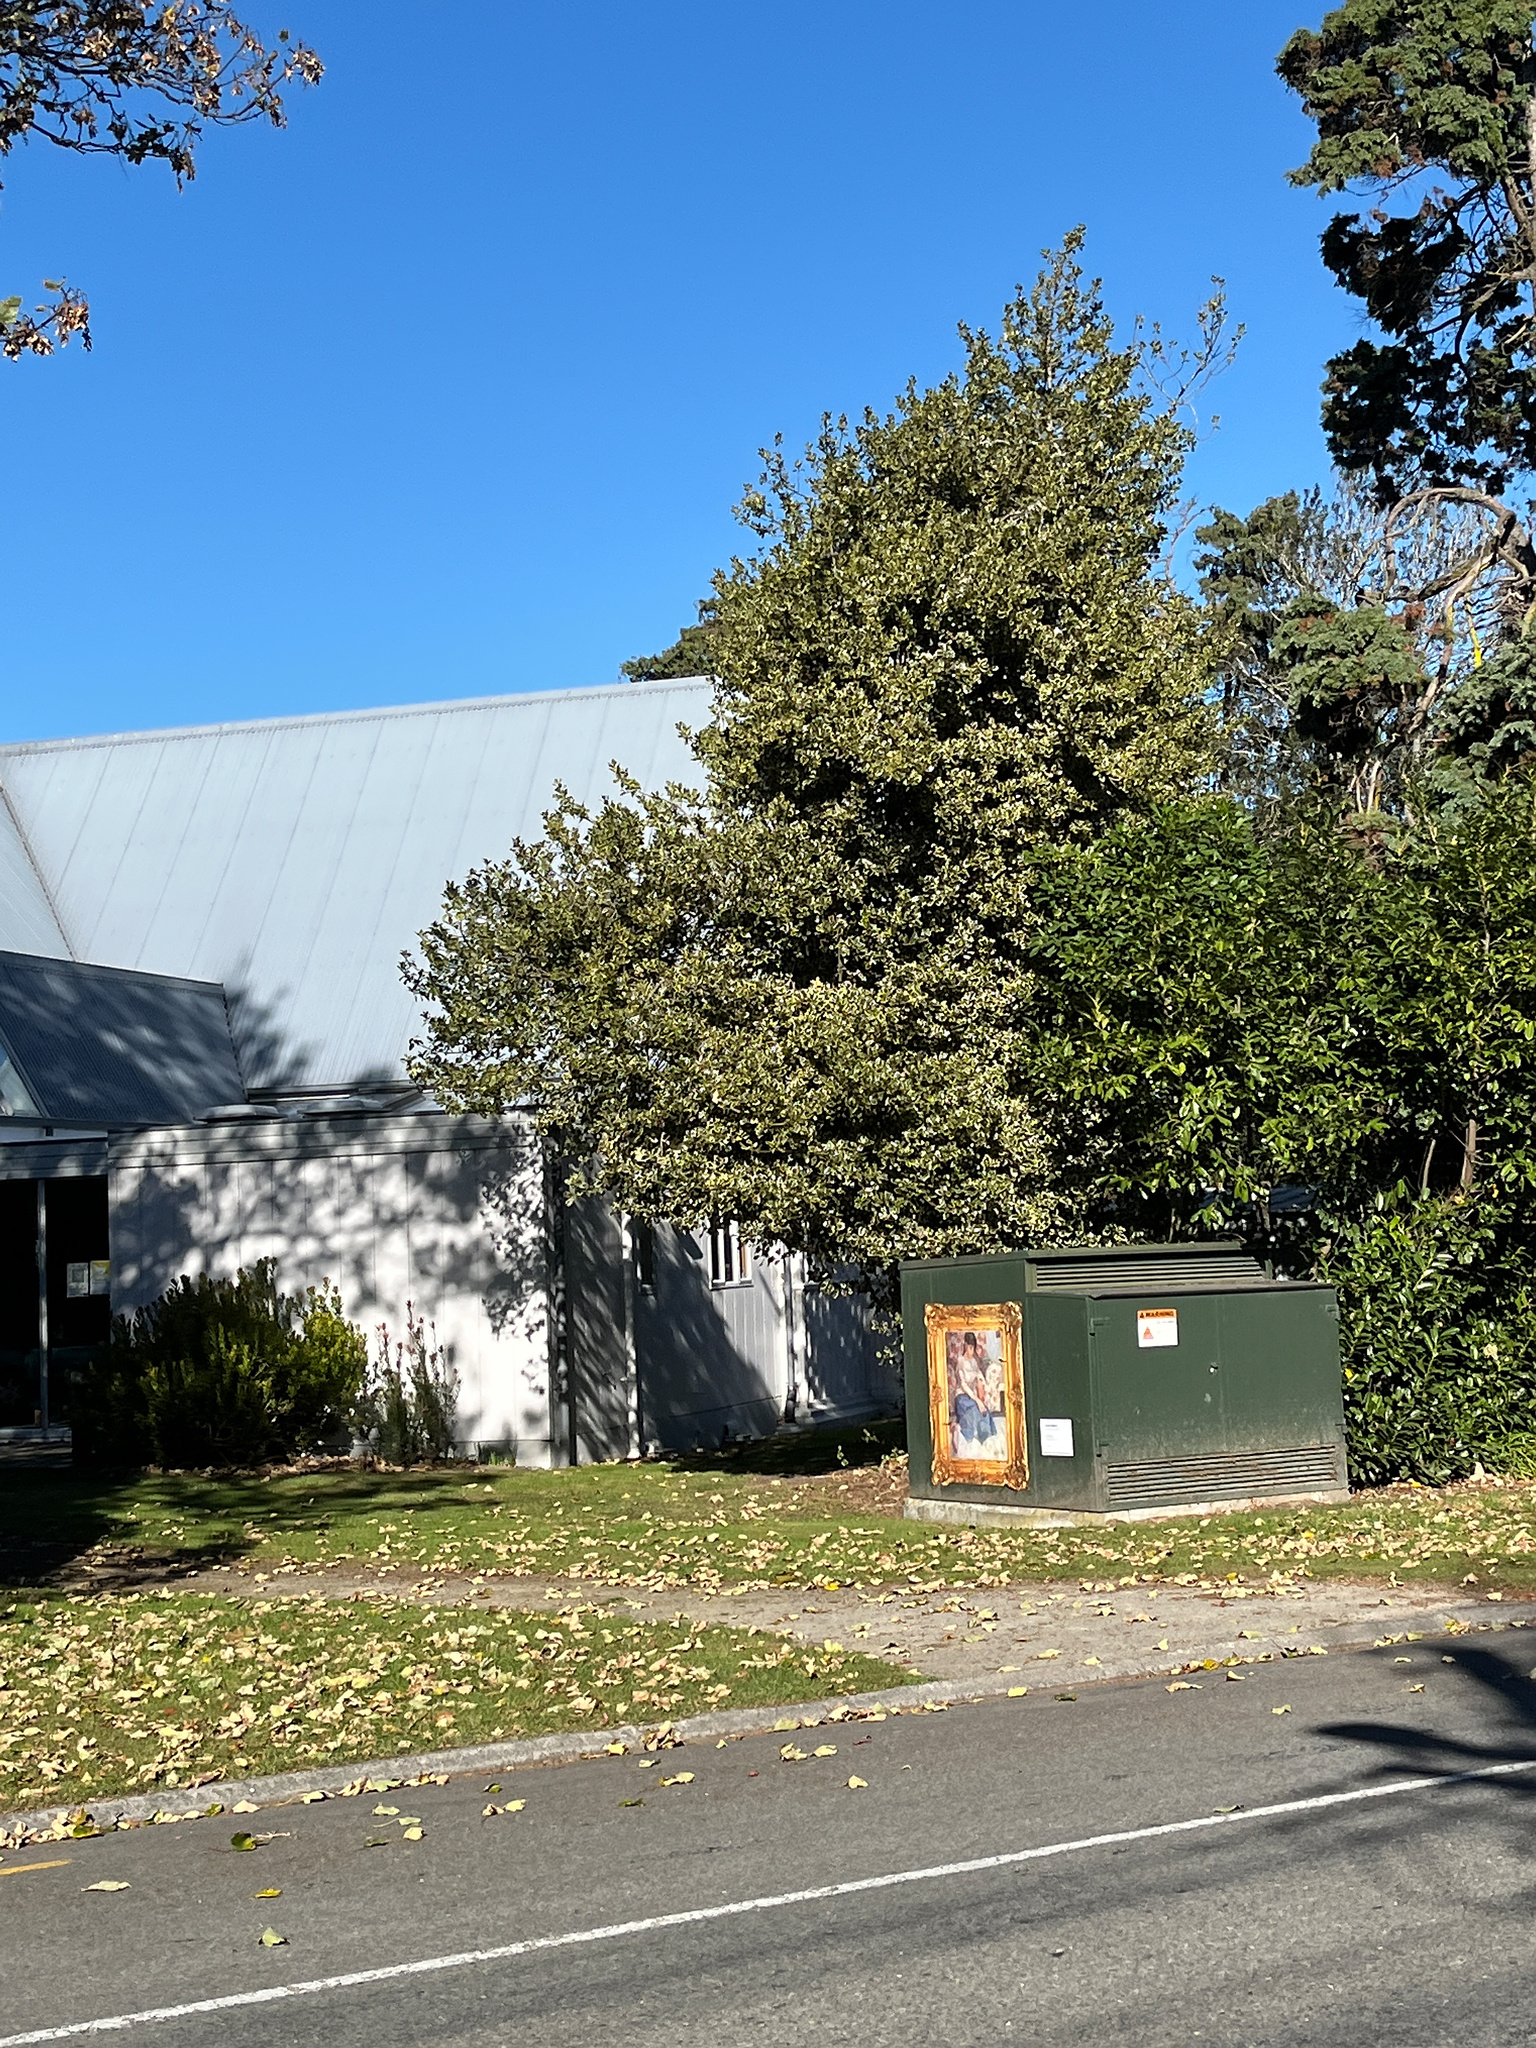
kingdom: Plantae
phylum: Tracheophyta
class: Magnoliopsida
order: Aquifoliales
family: Aquifoliaceae
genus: Ilex
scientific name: Ilex aquifolium
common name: English holly
